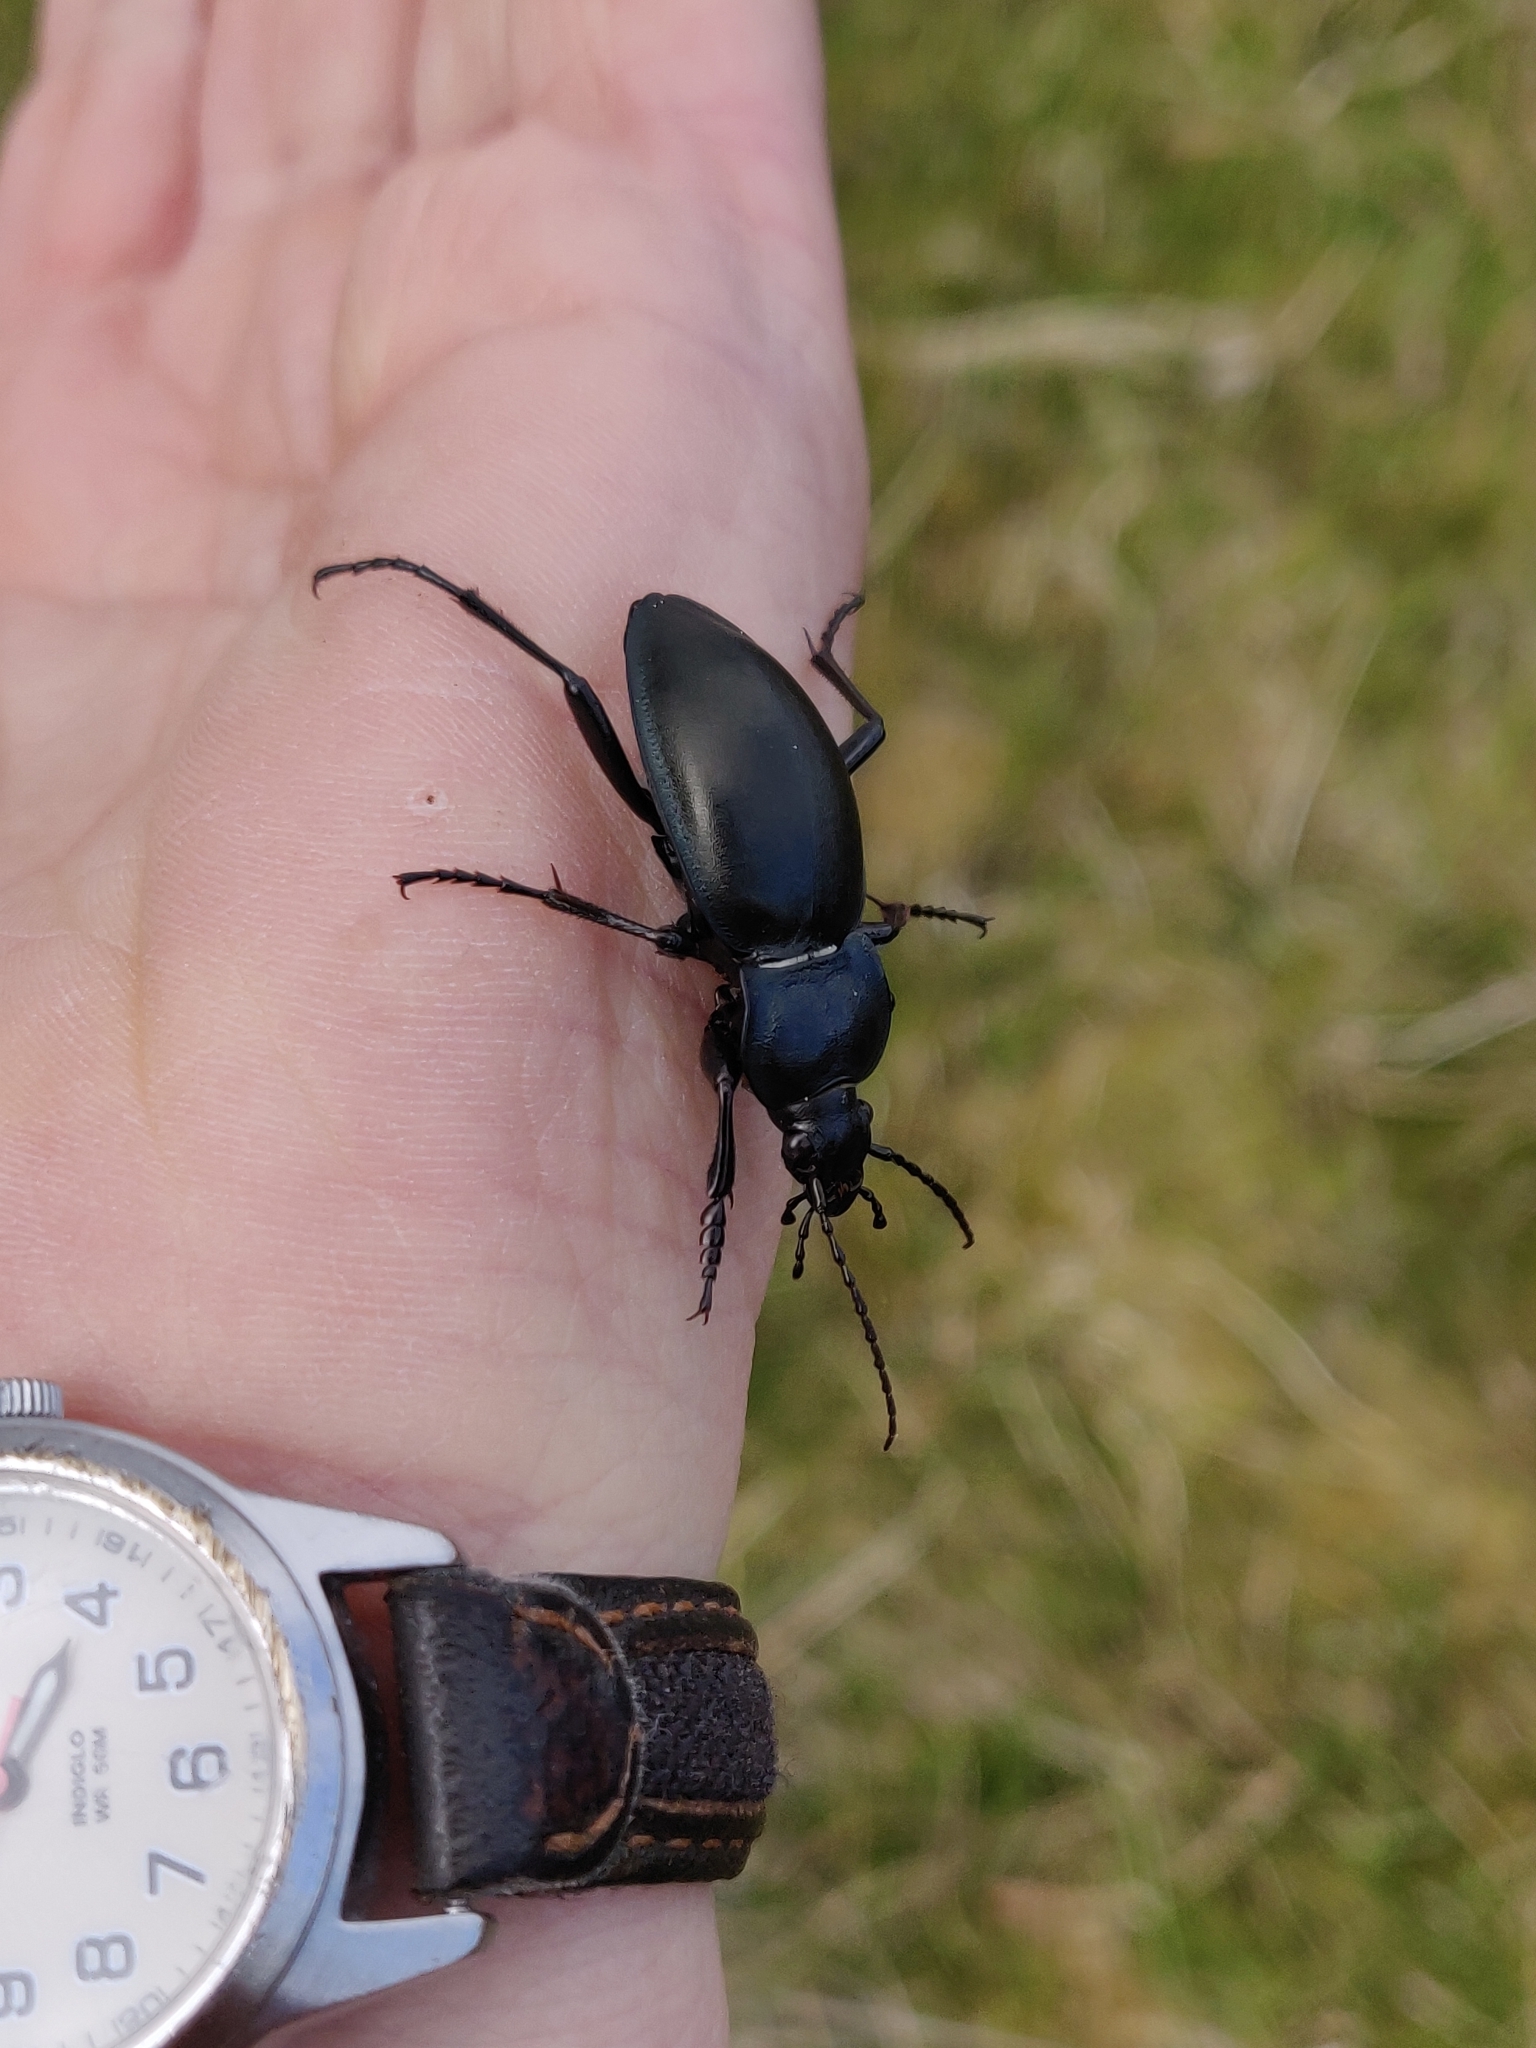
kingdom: Animalia
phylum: Arthropoda
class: Insecta
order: Coleoptera
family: Carabidae
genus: Carabus
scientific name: Carabus glabratus
